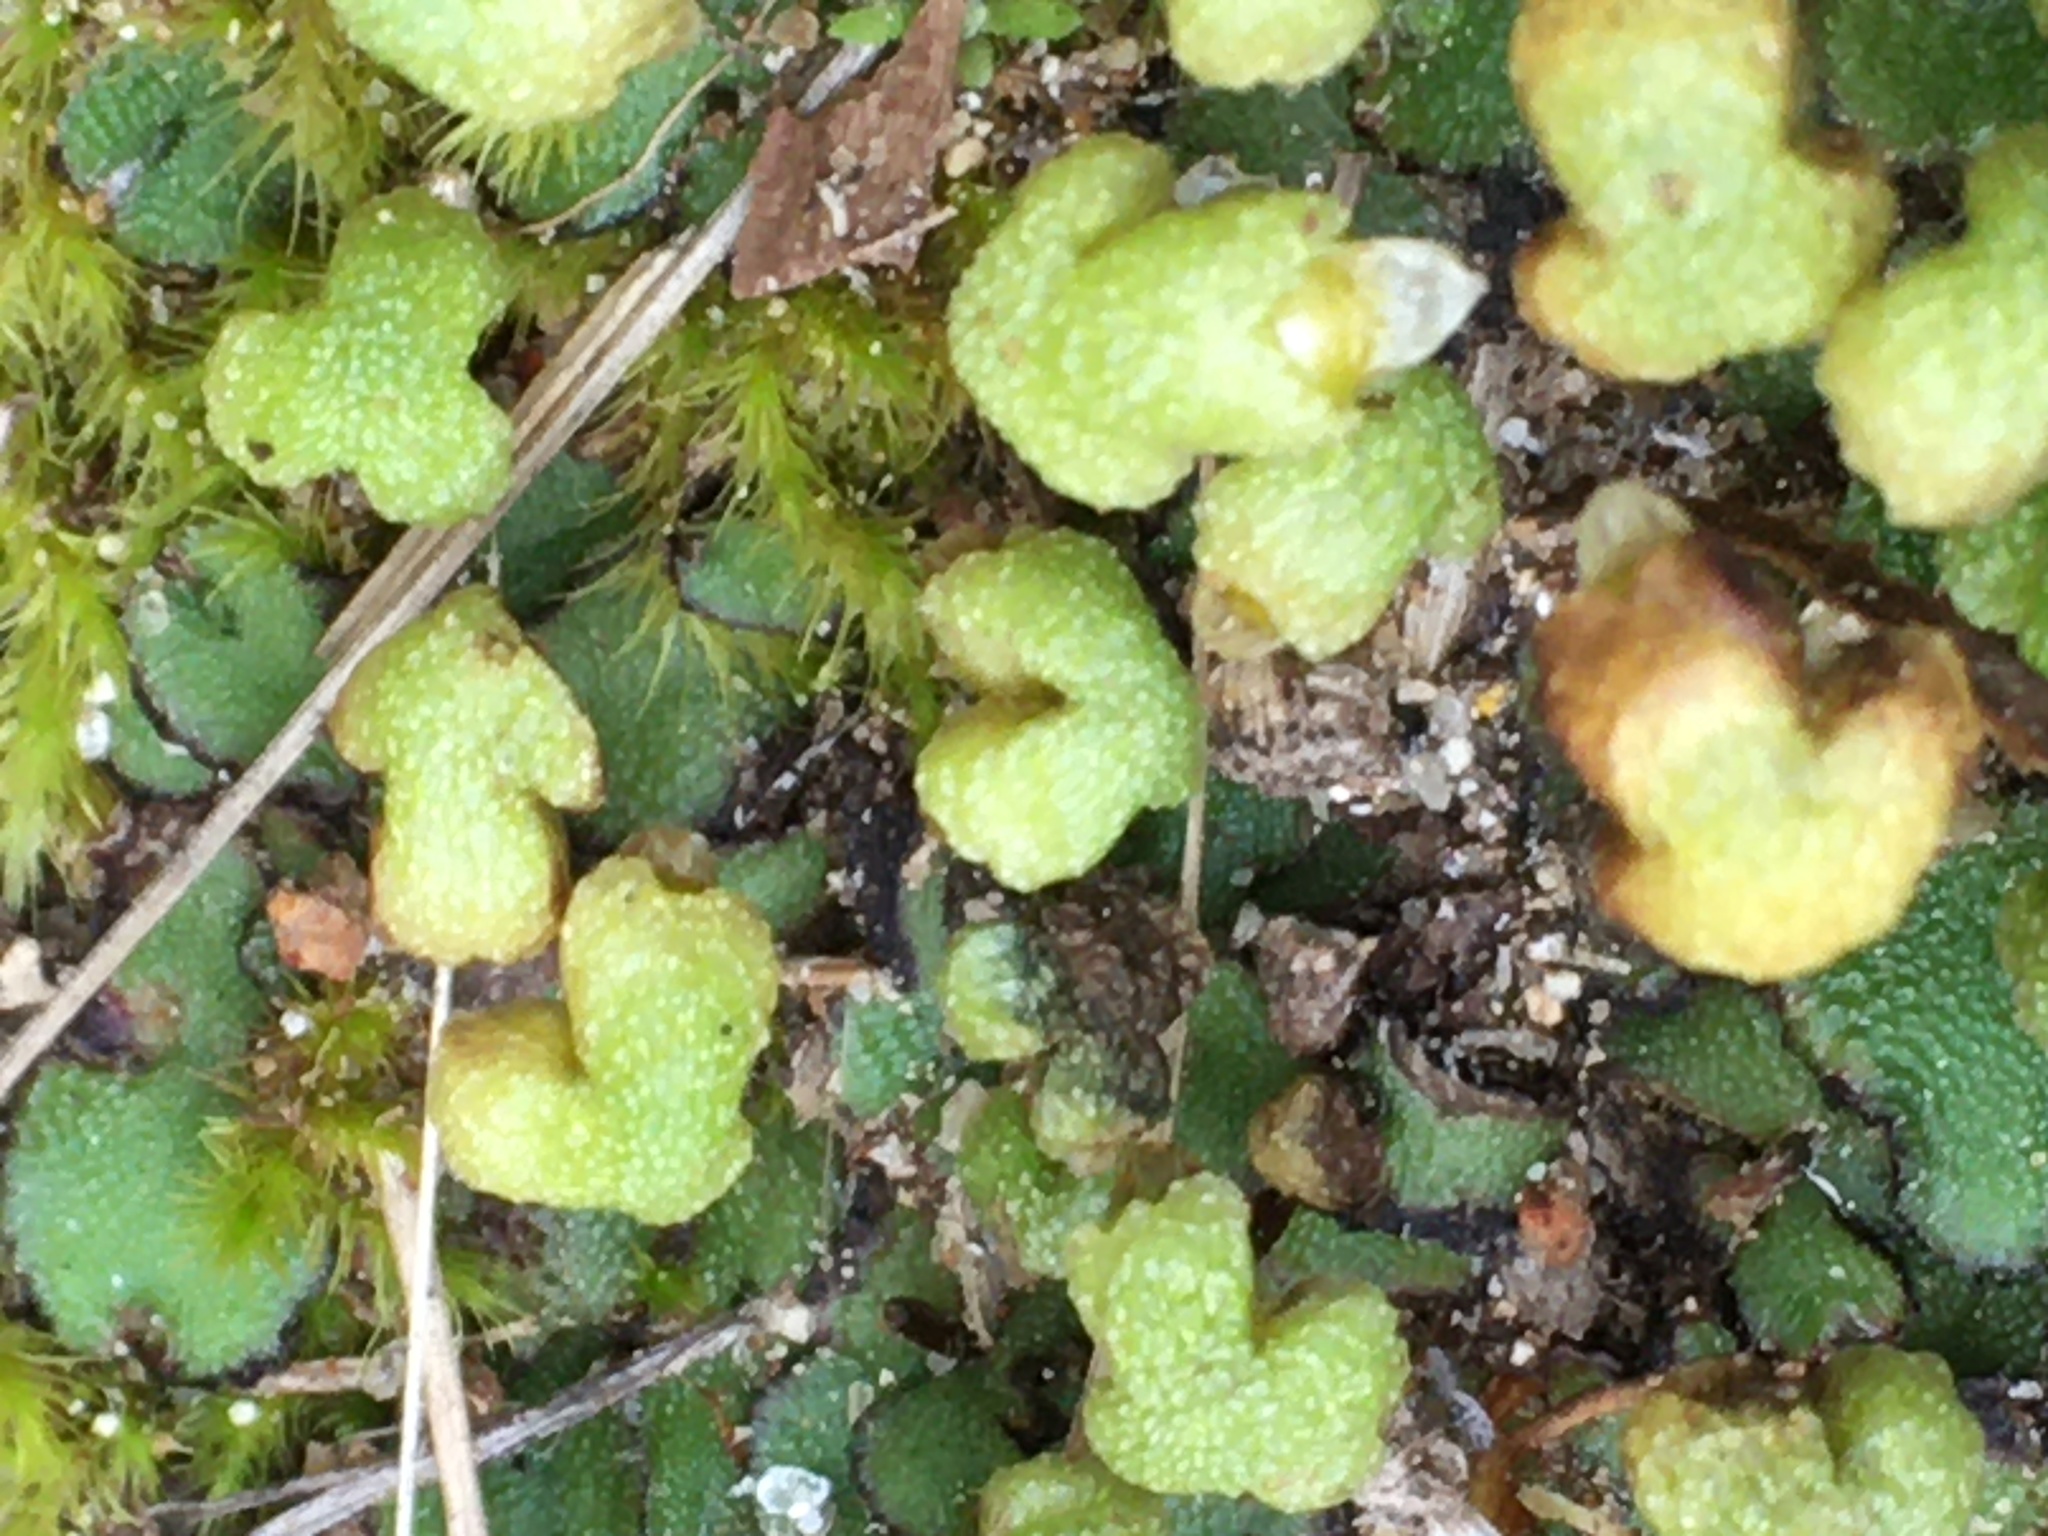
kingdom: Plantae
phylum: Marchantiophyta
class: Marchantiopsida
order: Marchantiales
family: Aytoniaceae
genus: Asterella
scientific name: Asterella californica
